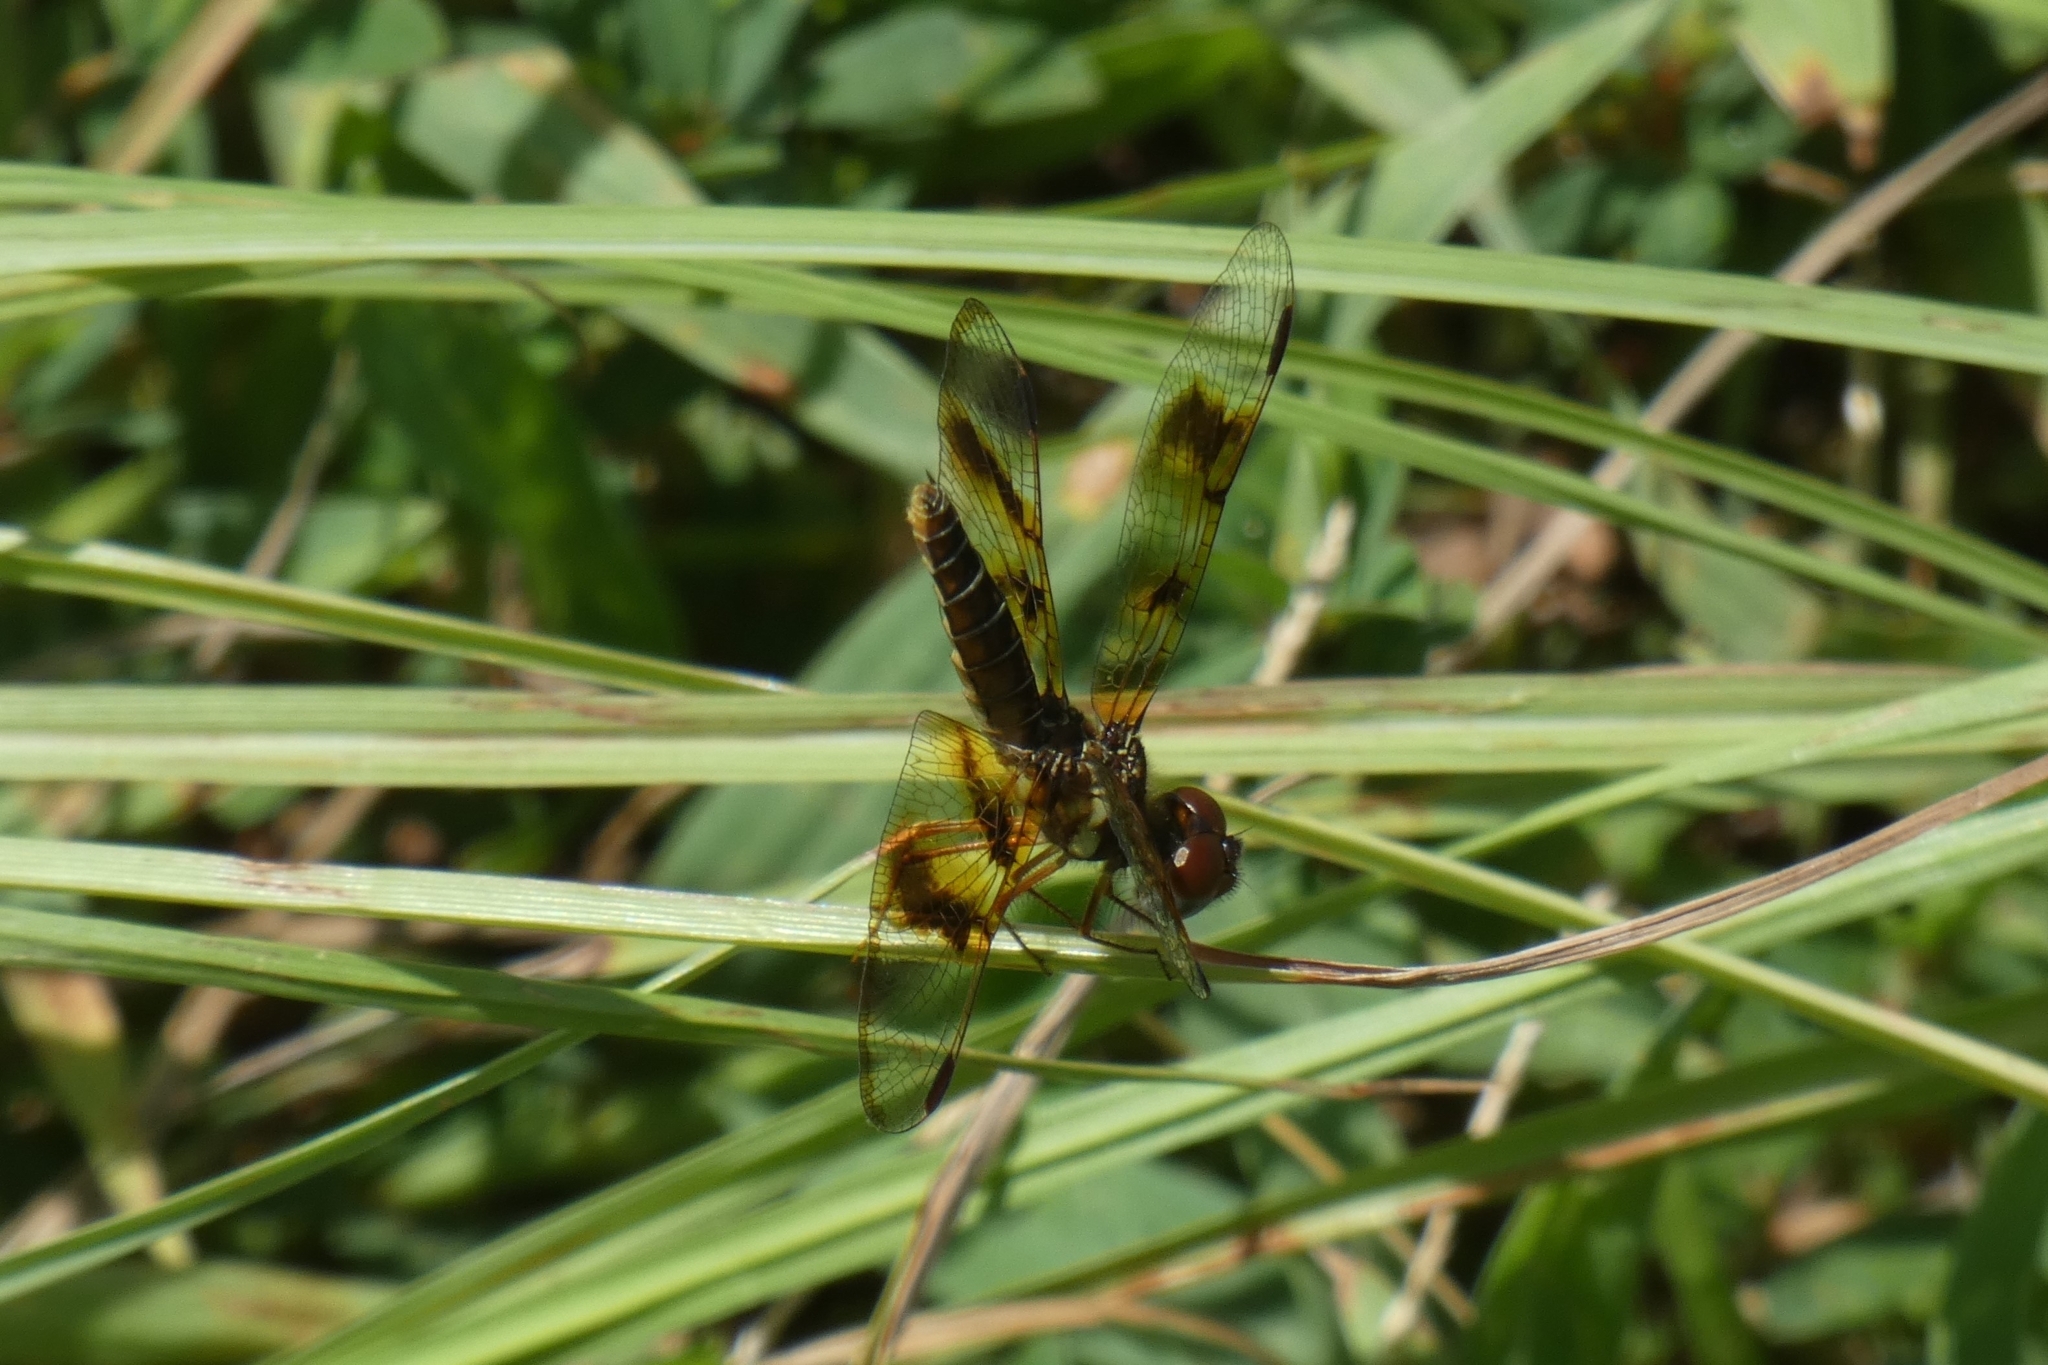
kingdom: Animalia
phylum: Arthropoda
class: Insecta
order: Odonata
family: Libellulidae
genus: Perithemis
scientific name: Perithemis tenera
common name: Eastern amberwing
